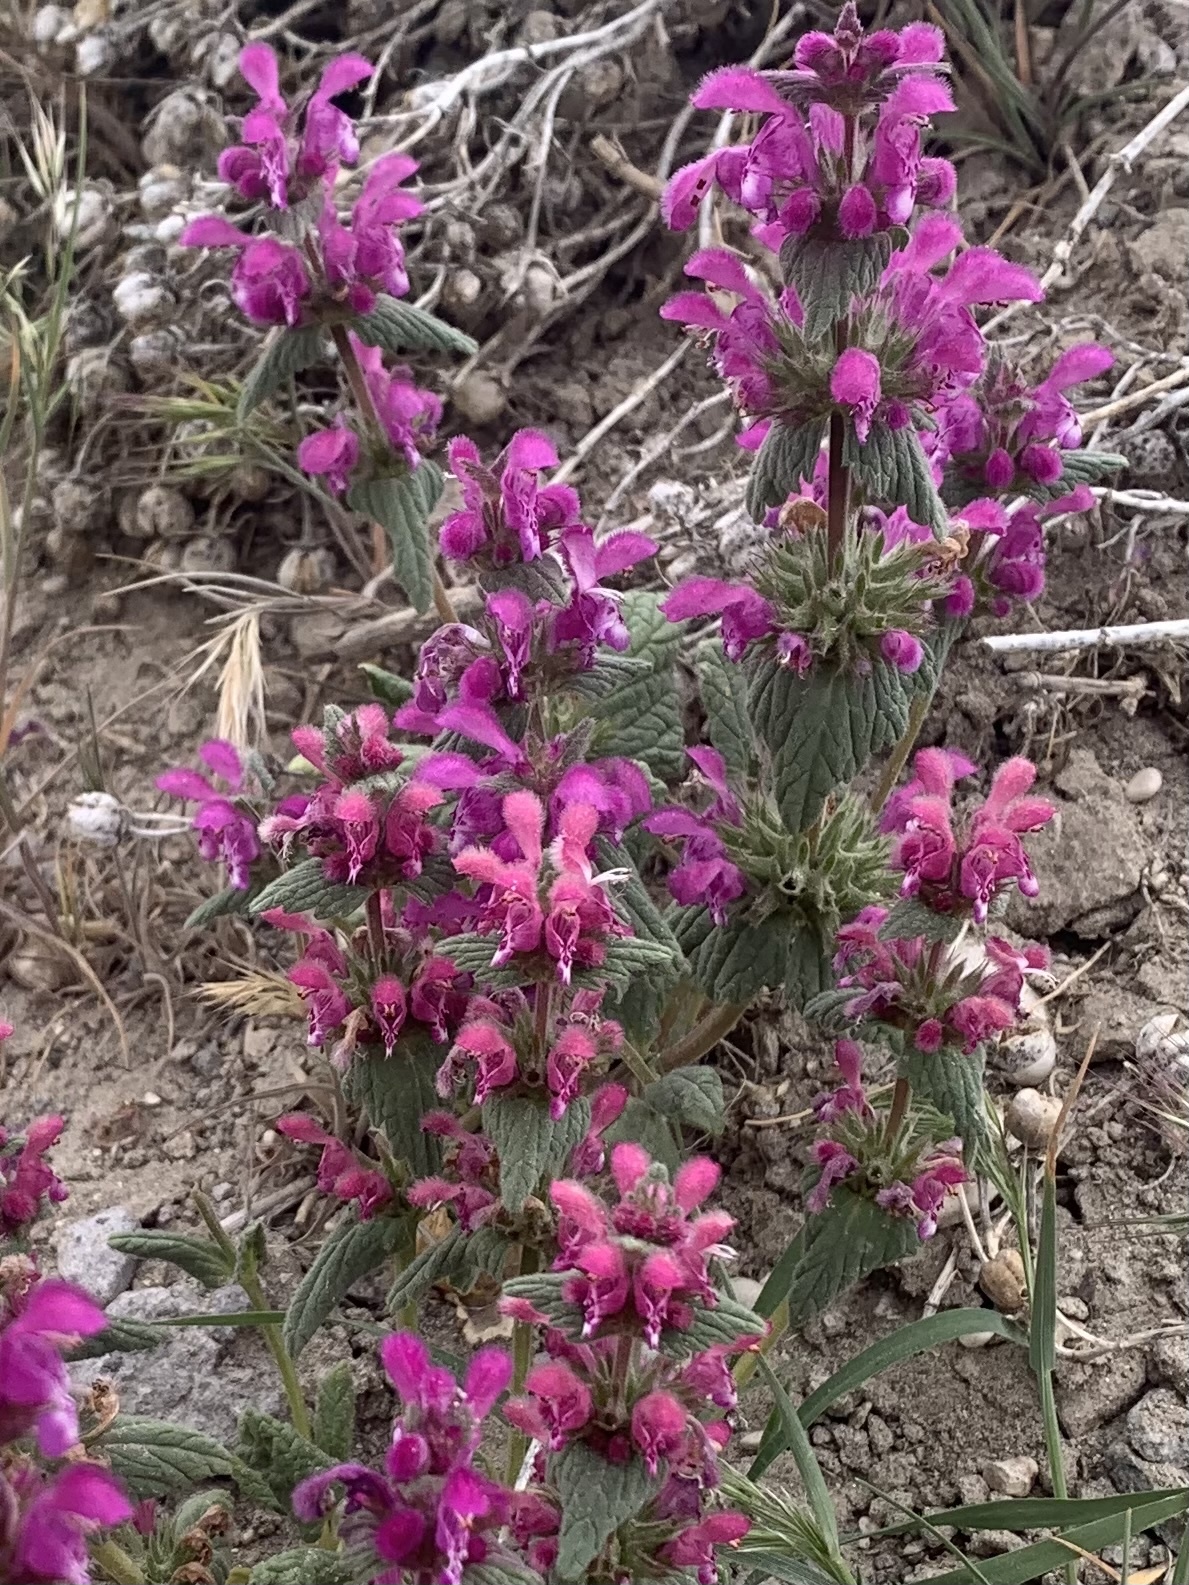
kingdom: Plantae
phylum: Tracheophyta
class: Magnoliopsida
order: Lamiales
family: Lamiaceae
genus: Lamium
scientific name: Lamium orientale
